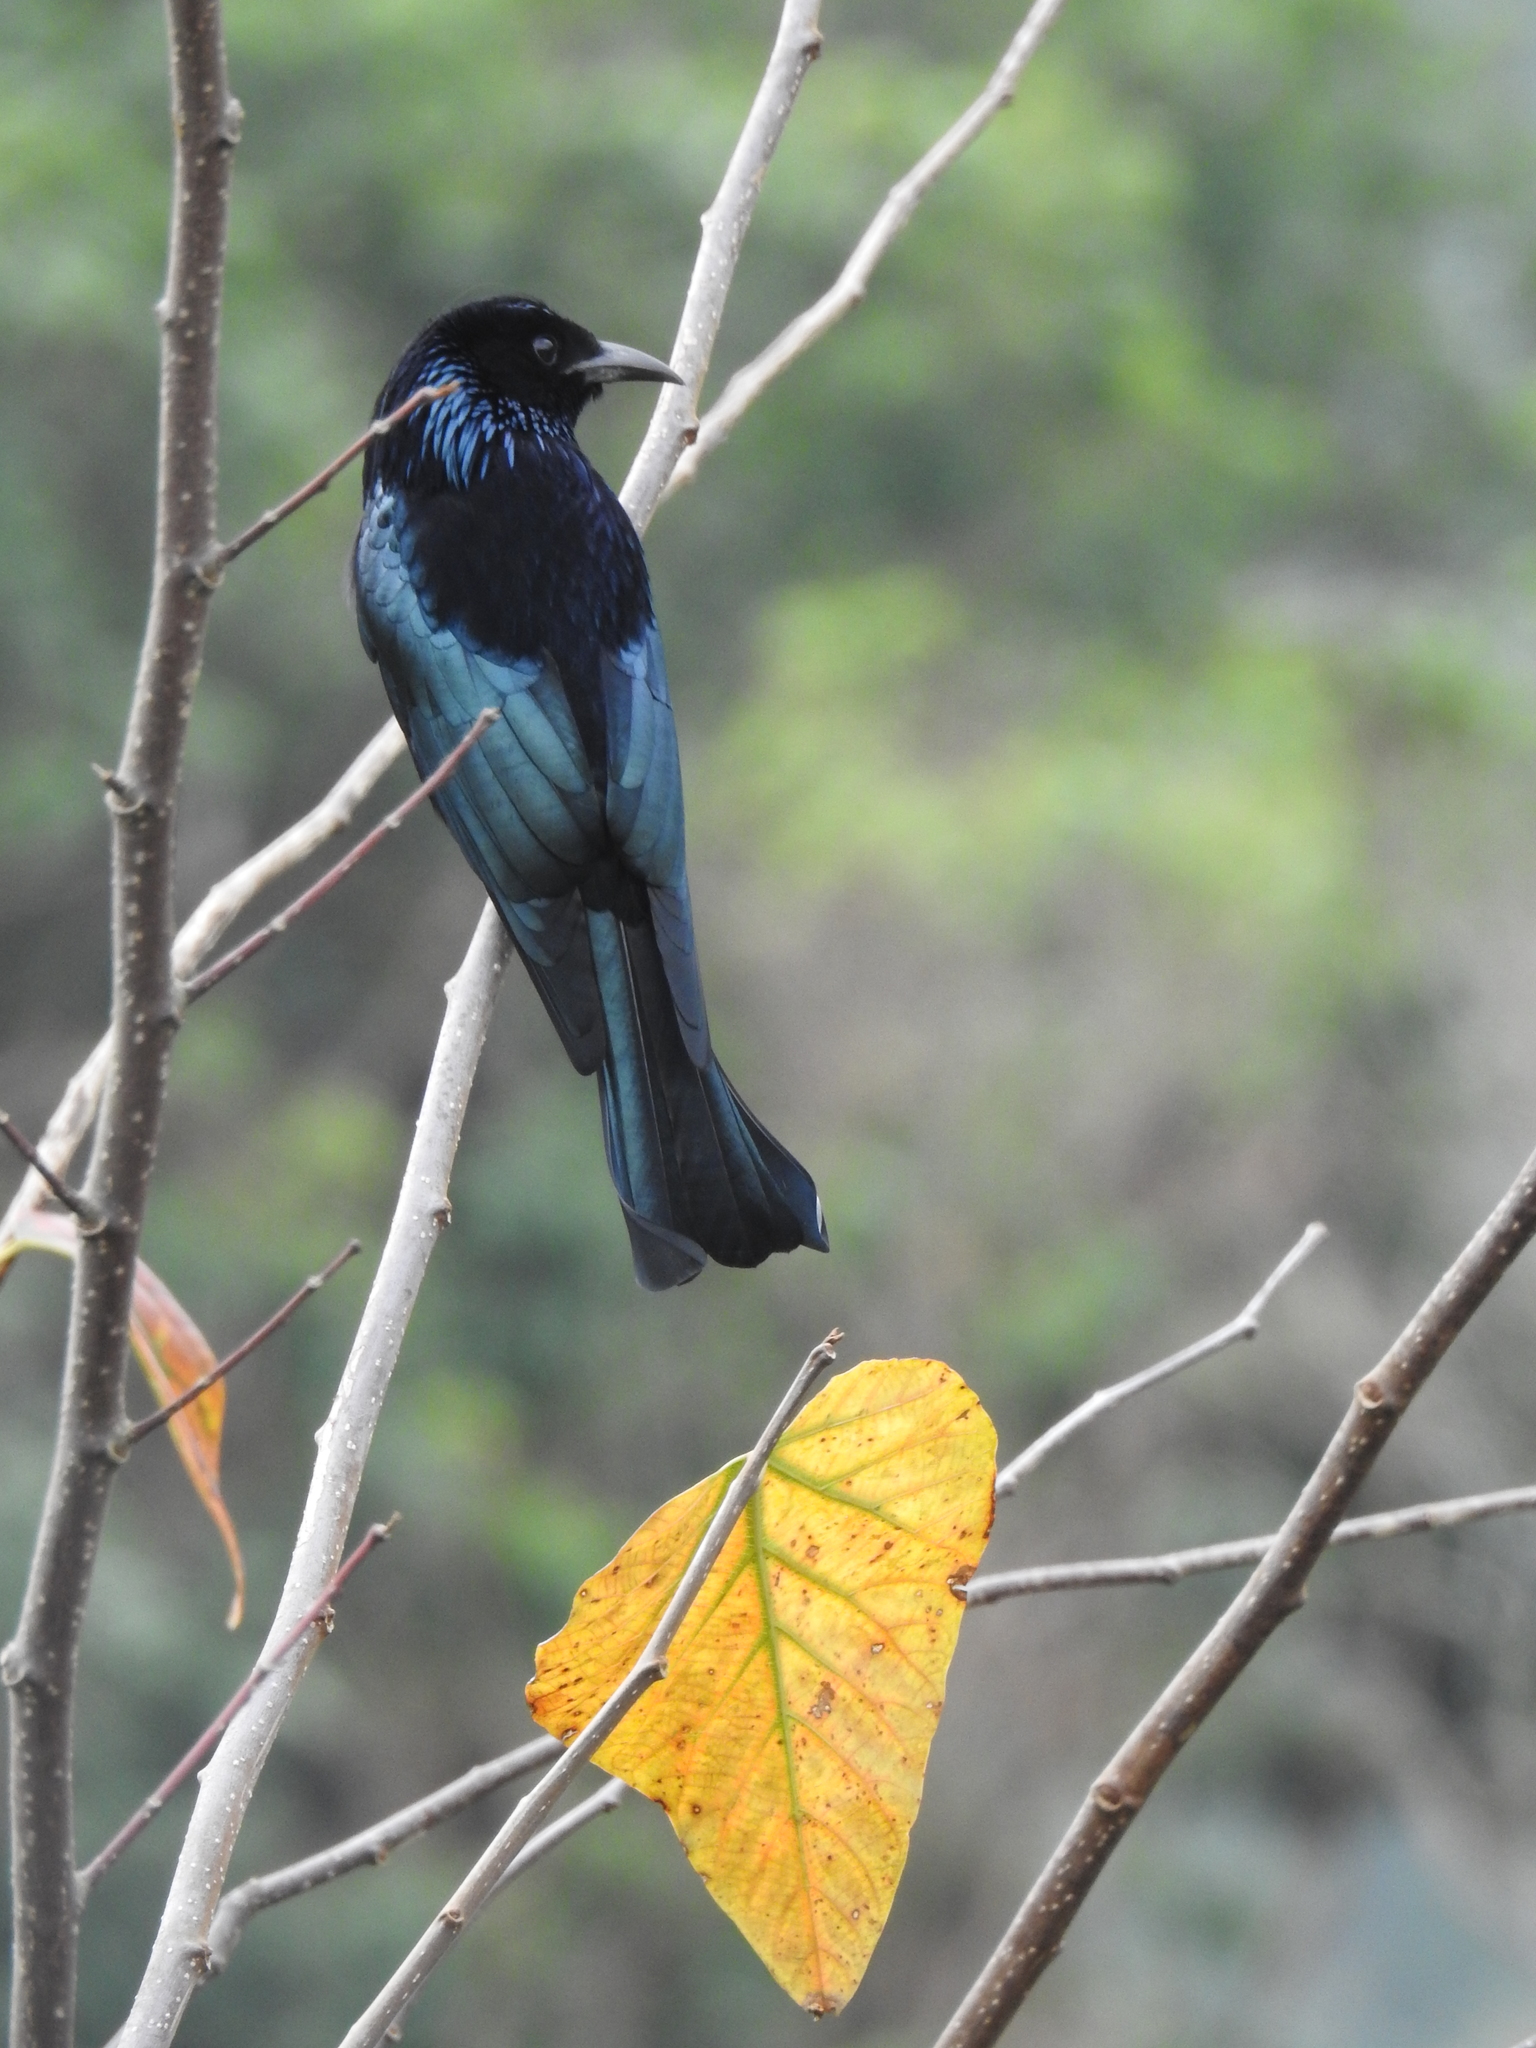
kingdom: Animalia
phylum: Chordata
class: Aves
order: Passeriformes
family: Dicruridae
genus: Dicrurus
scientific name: Dicrurus hottentottus
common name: Hair-crested drongo
